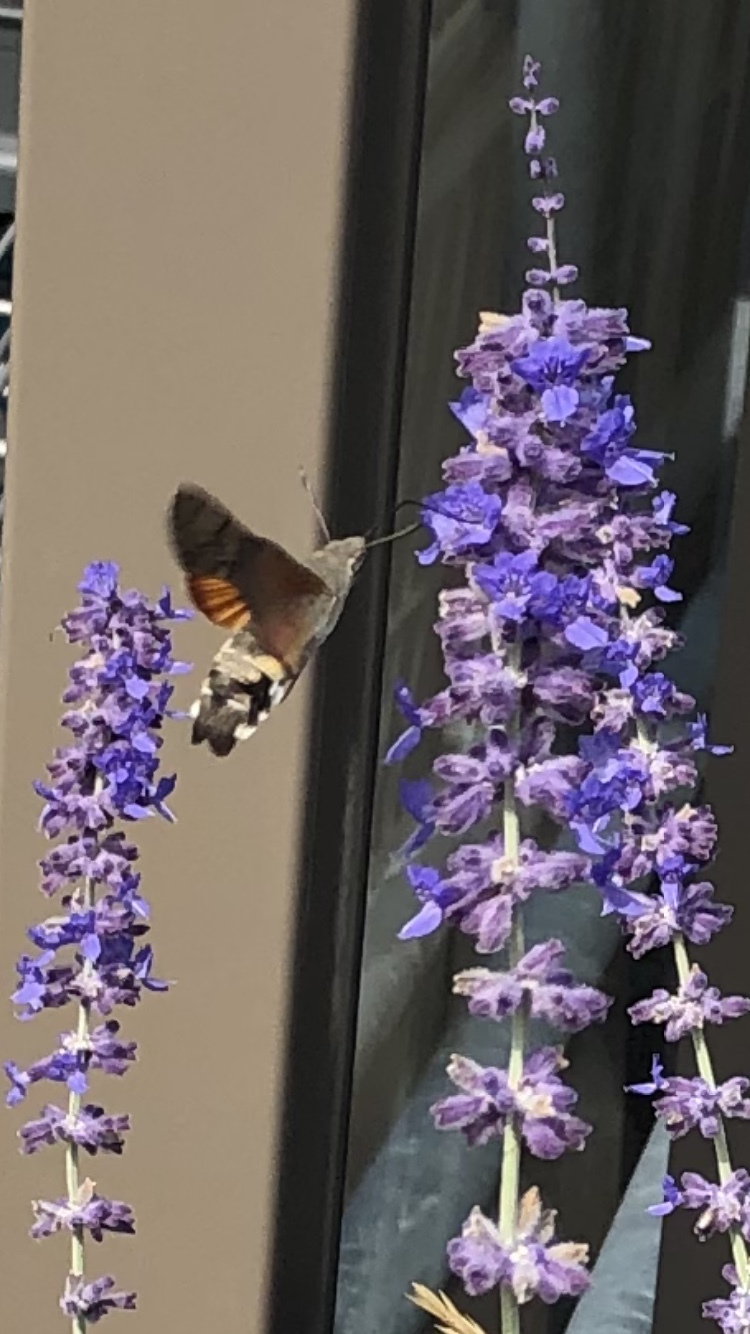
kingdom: Animalia
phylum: Arthropoda
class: Insecta
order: Lepidoptera
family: Sphingidae
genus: Macroglossum
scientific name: Macroglossum stellatarum
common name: Humming-bird hawk-moth
